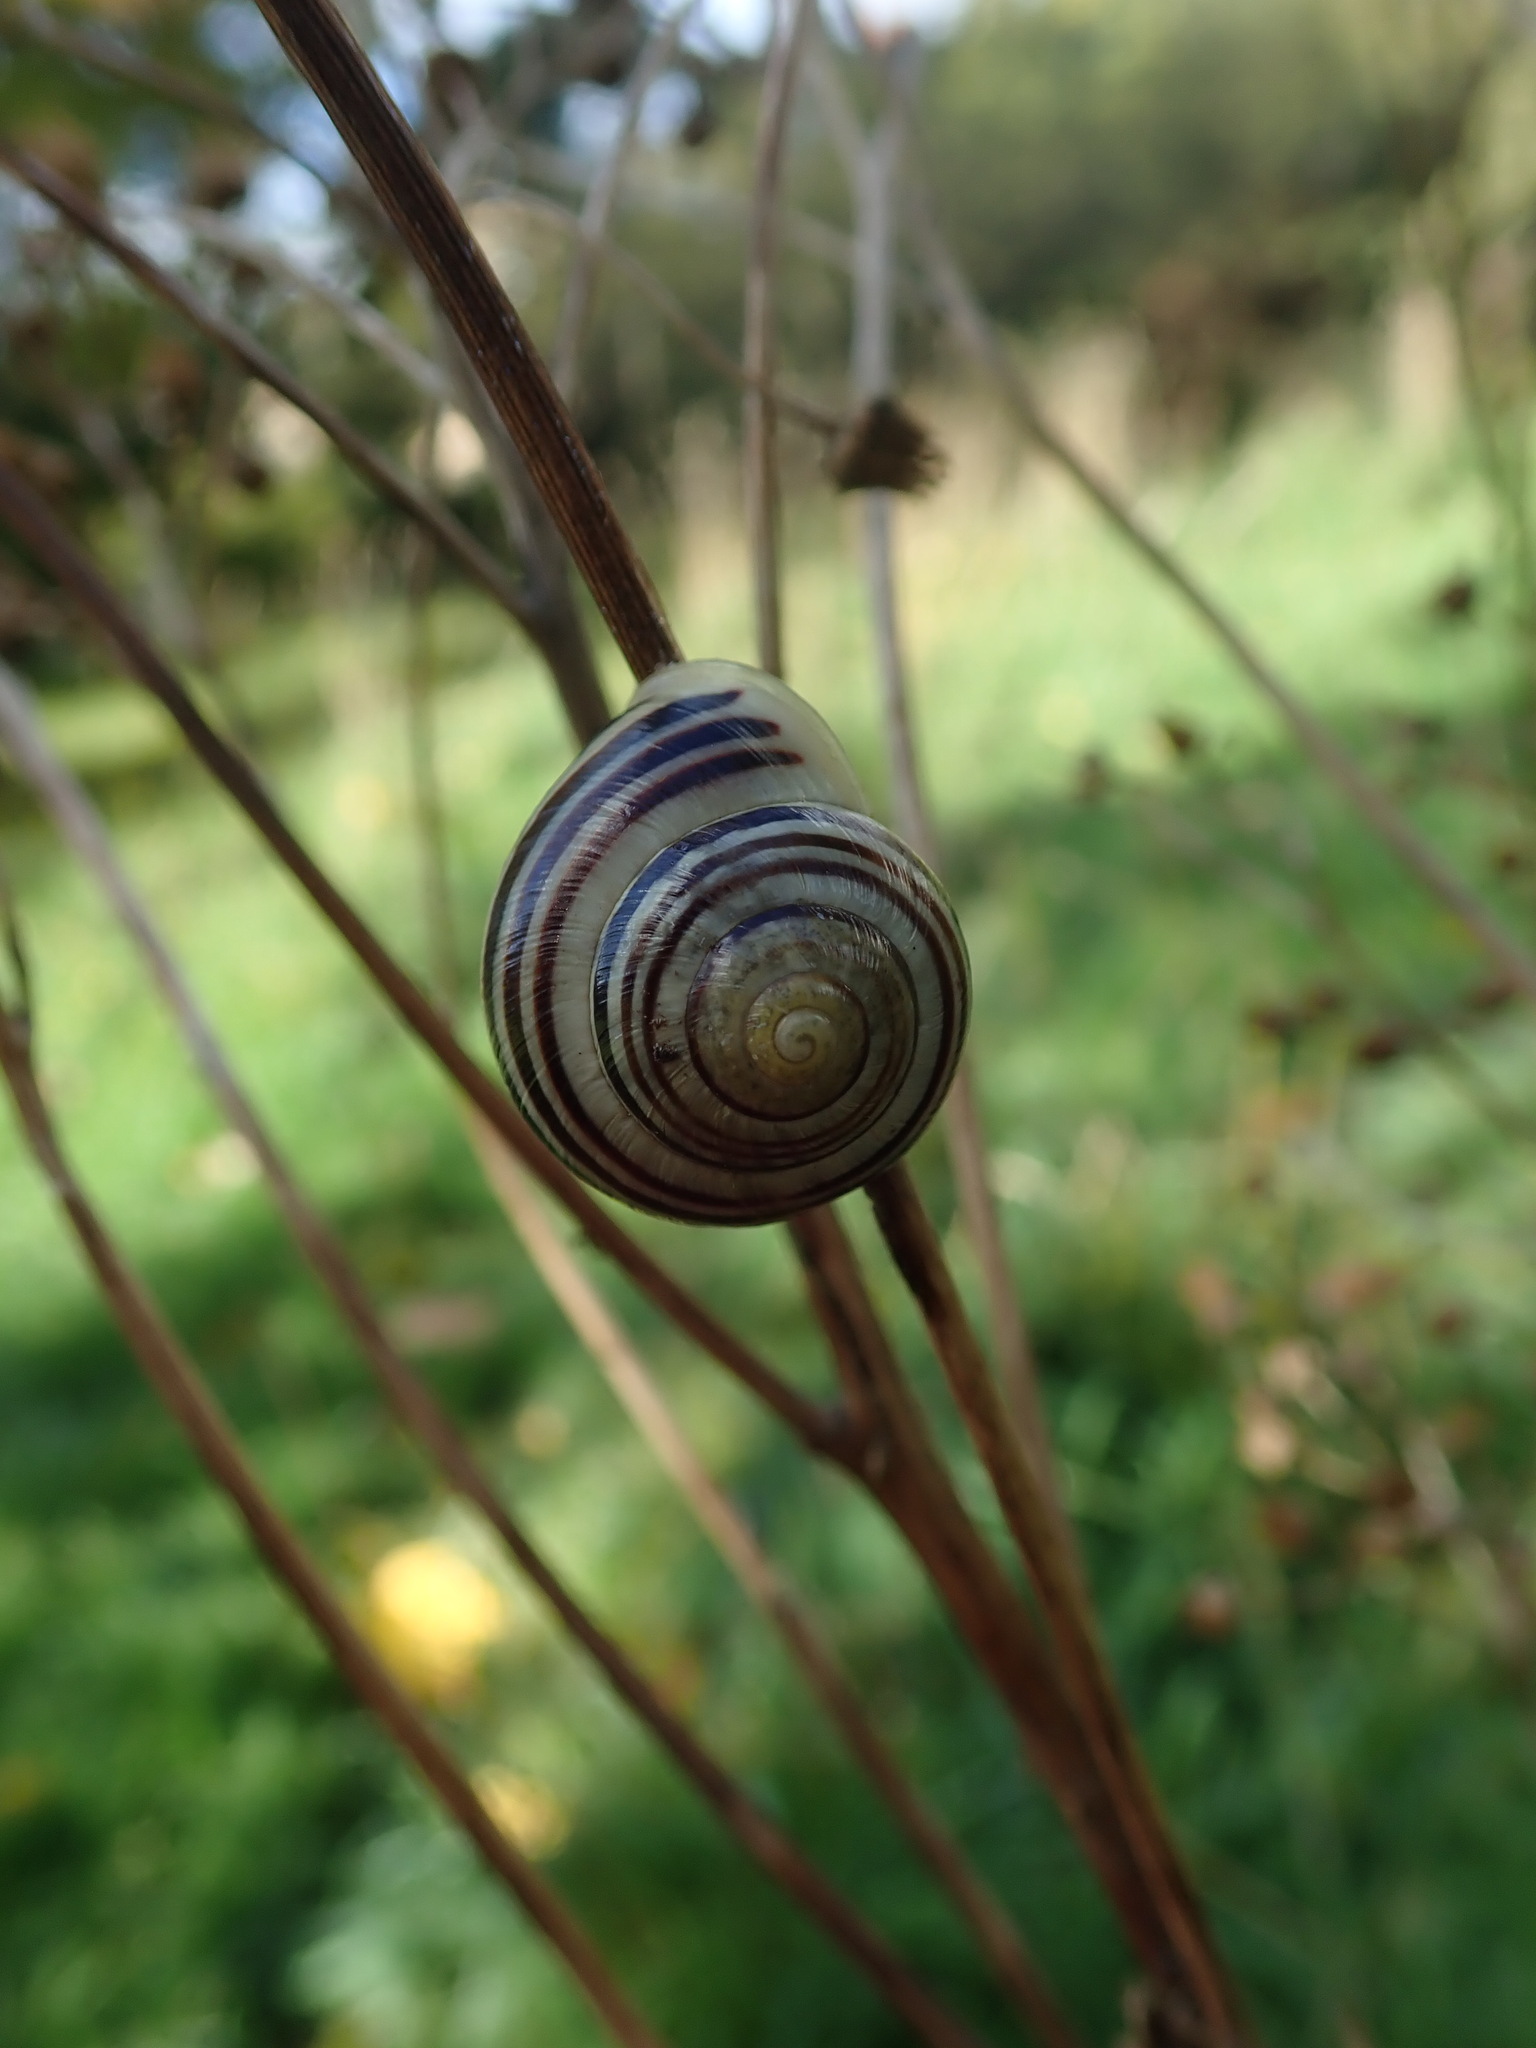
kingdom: Animalia
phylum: Mollusca
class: Gastropoda
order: Stylommatophora
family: Helicidae
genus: Cepaea
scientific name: Cepaea hortensis
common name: White-lip gardensnail
